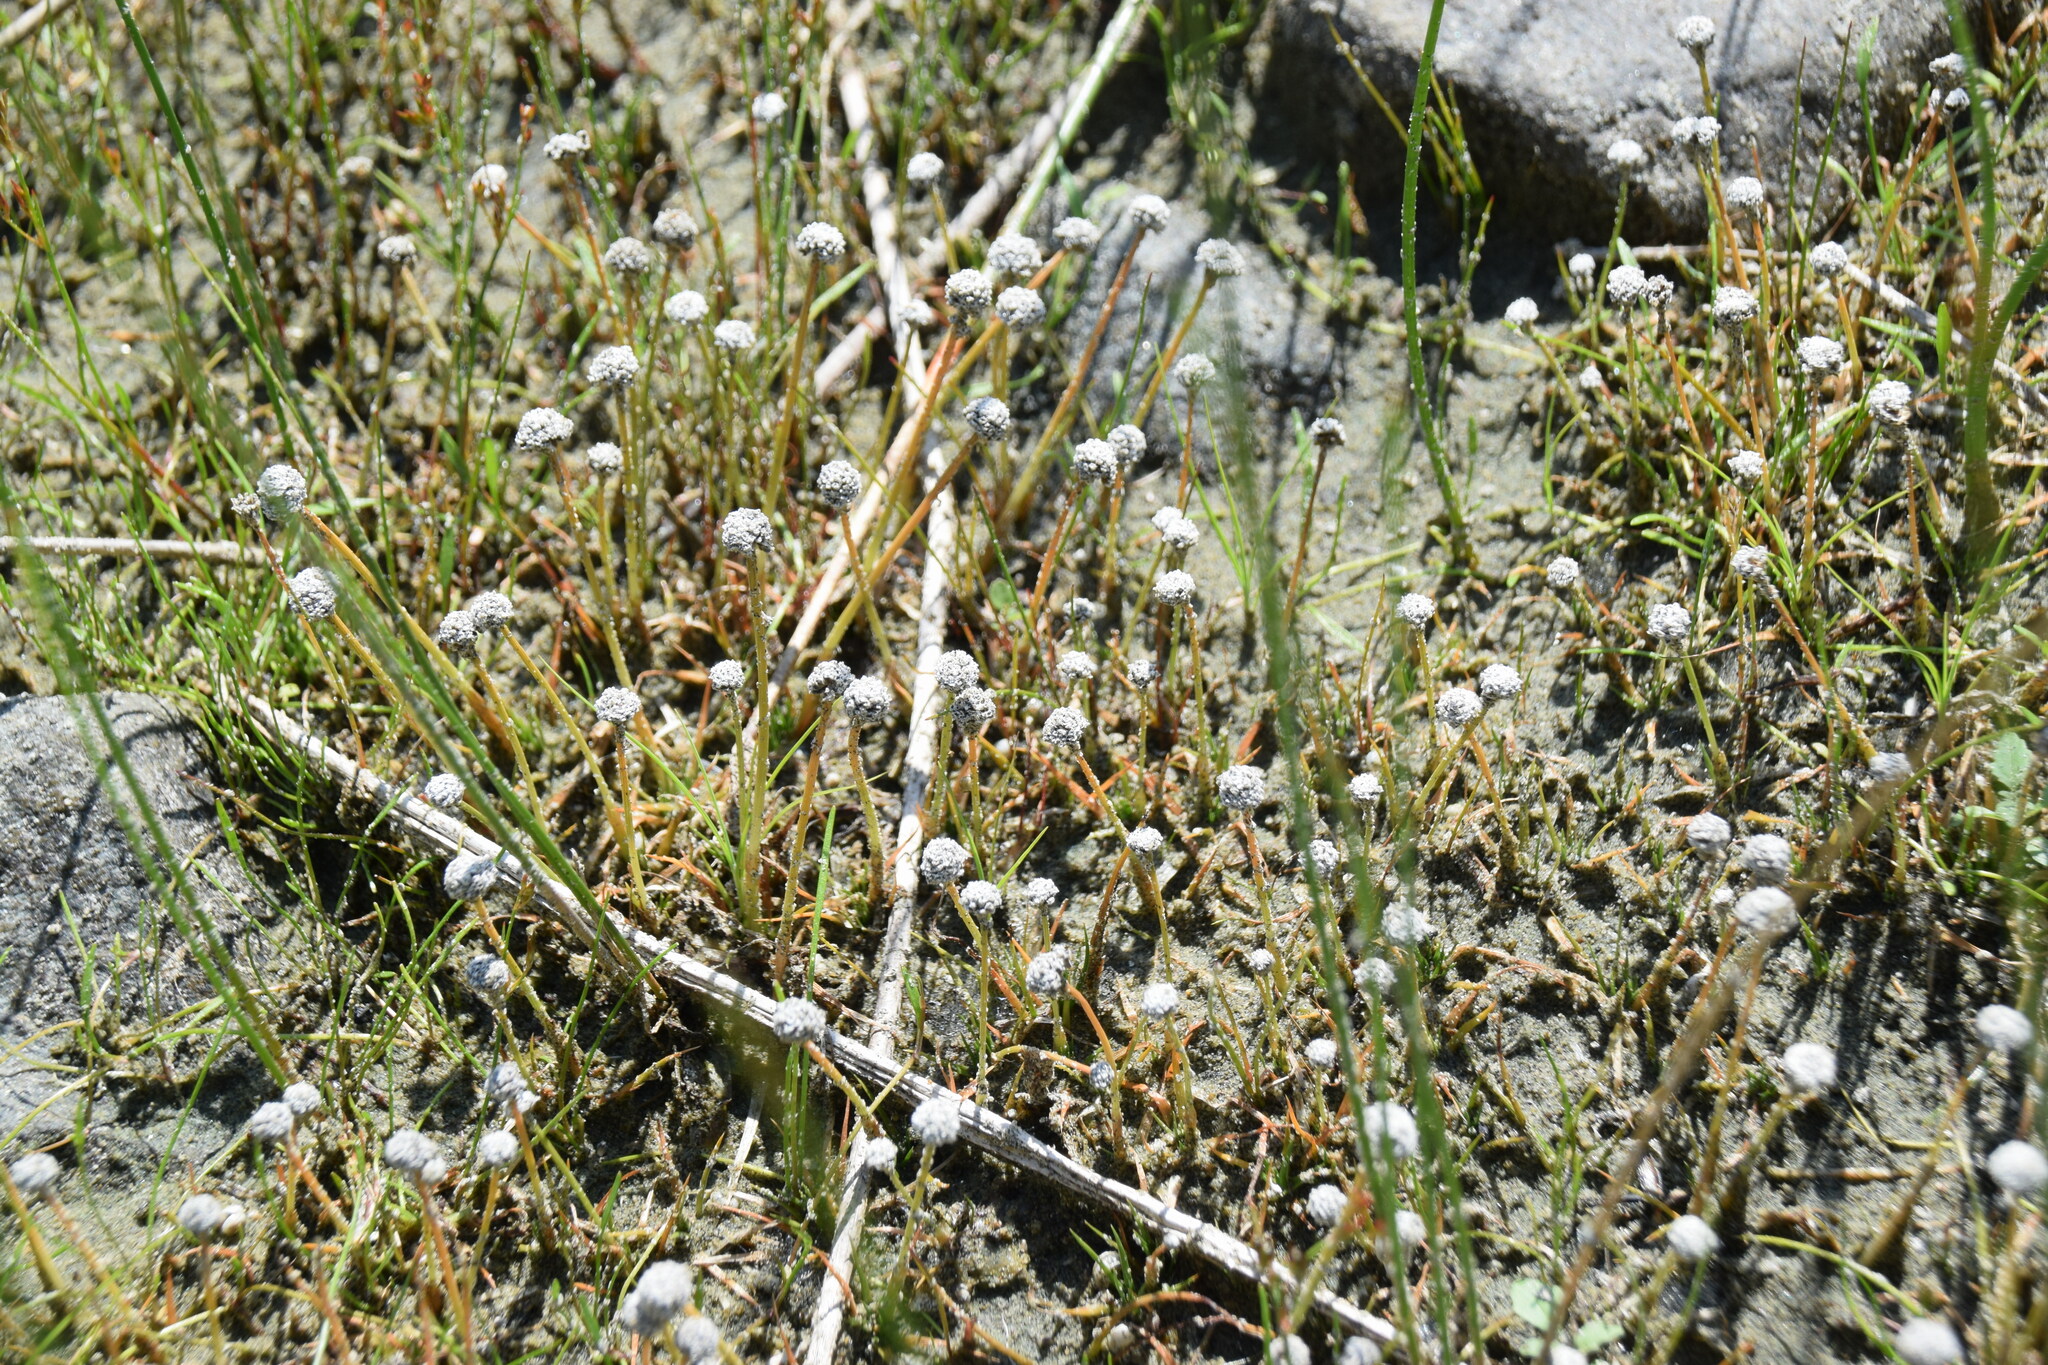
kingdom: Plantae
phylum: Tracheophyta
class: Liliopsida
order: Poales
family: Eriocaulaceae
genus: Eriocaulon
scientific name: Eriocaulon aquaticum
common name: Pipewort
